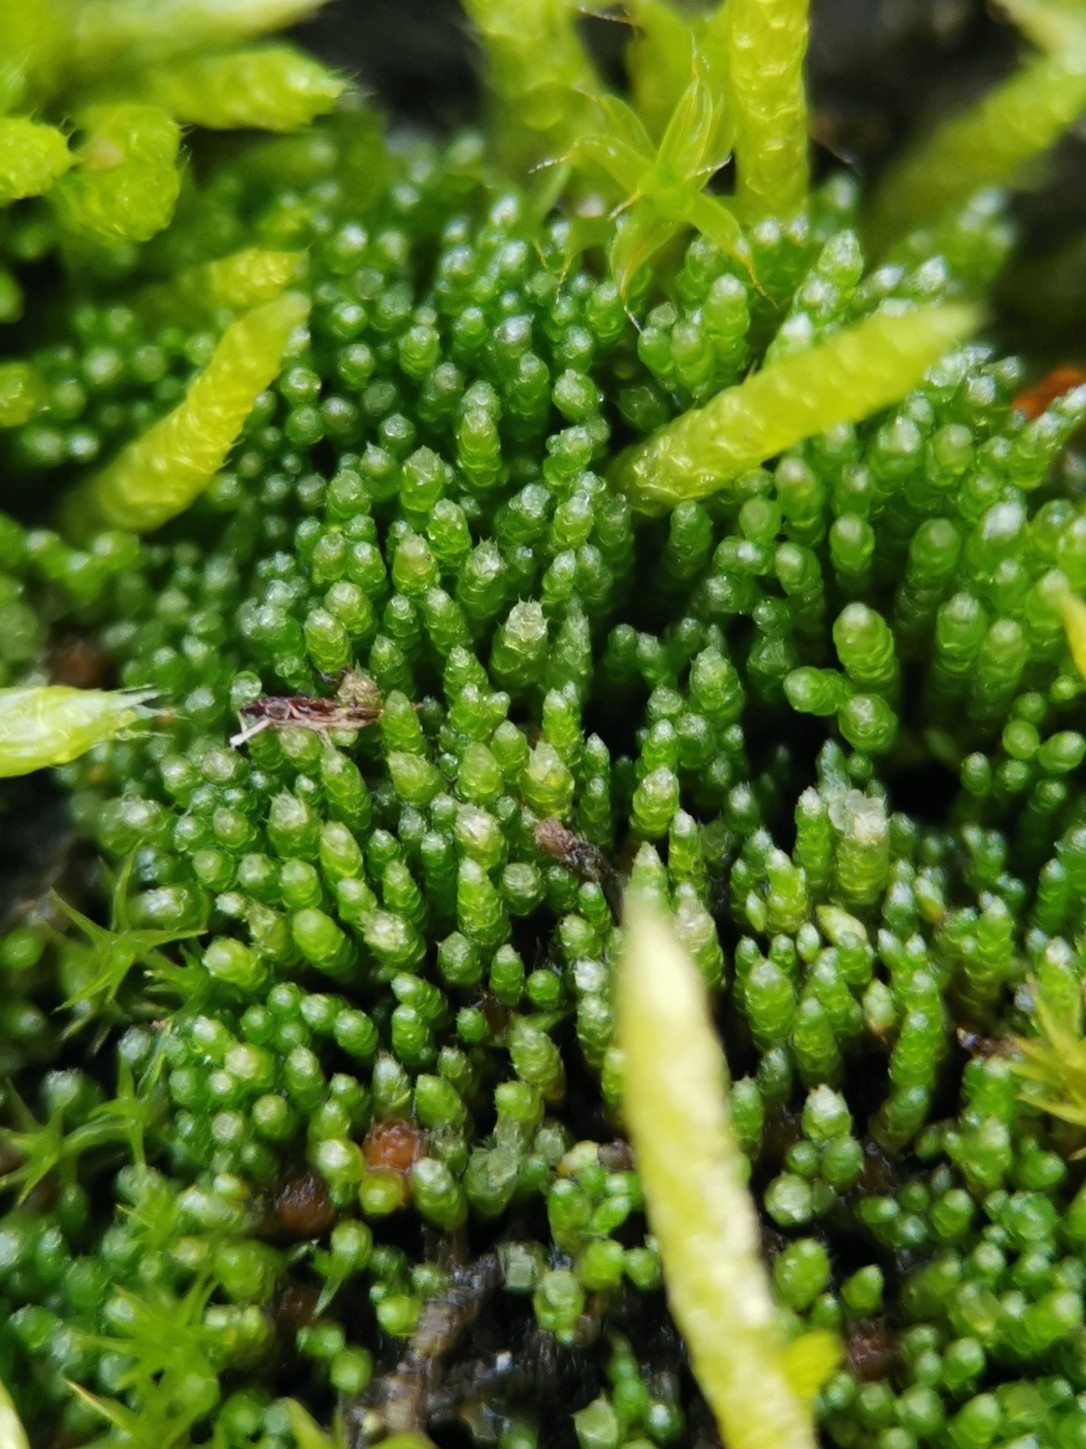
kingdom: Plantae
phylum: Bryophyta
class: Bryopsida
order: Bryales
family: Bryaceae
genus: Bryum
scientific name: Bryum argenteum
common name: Silver-moss
